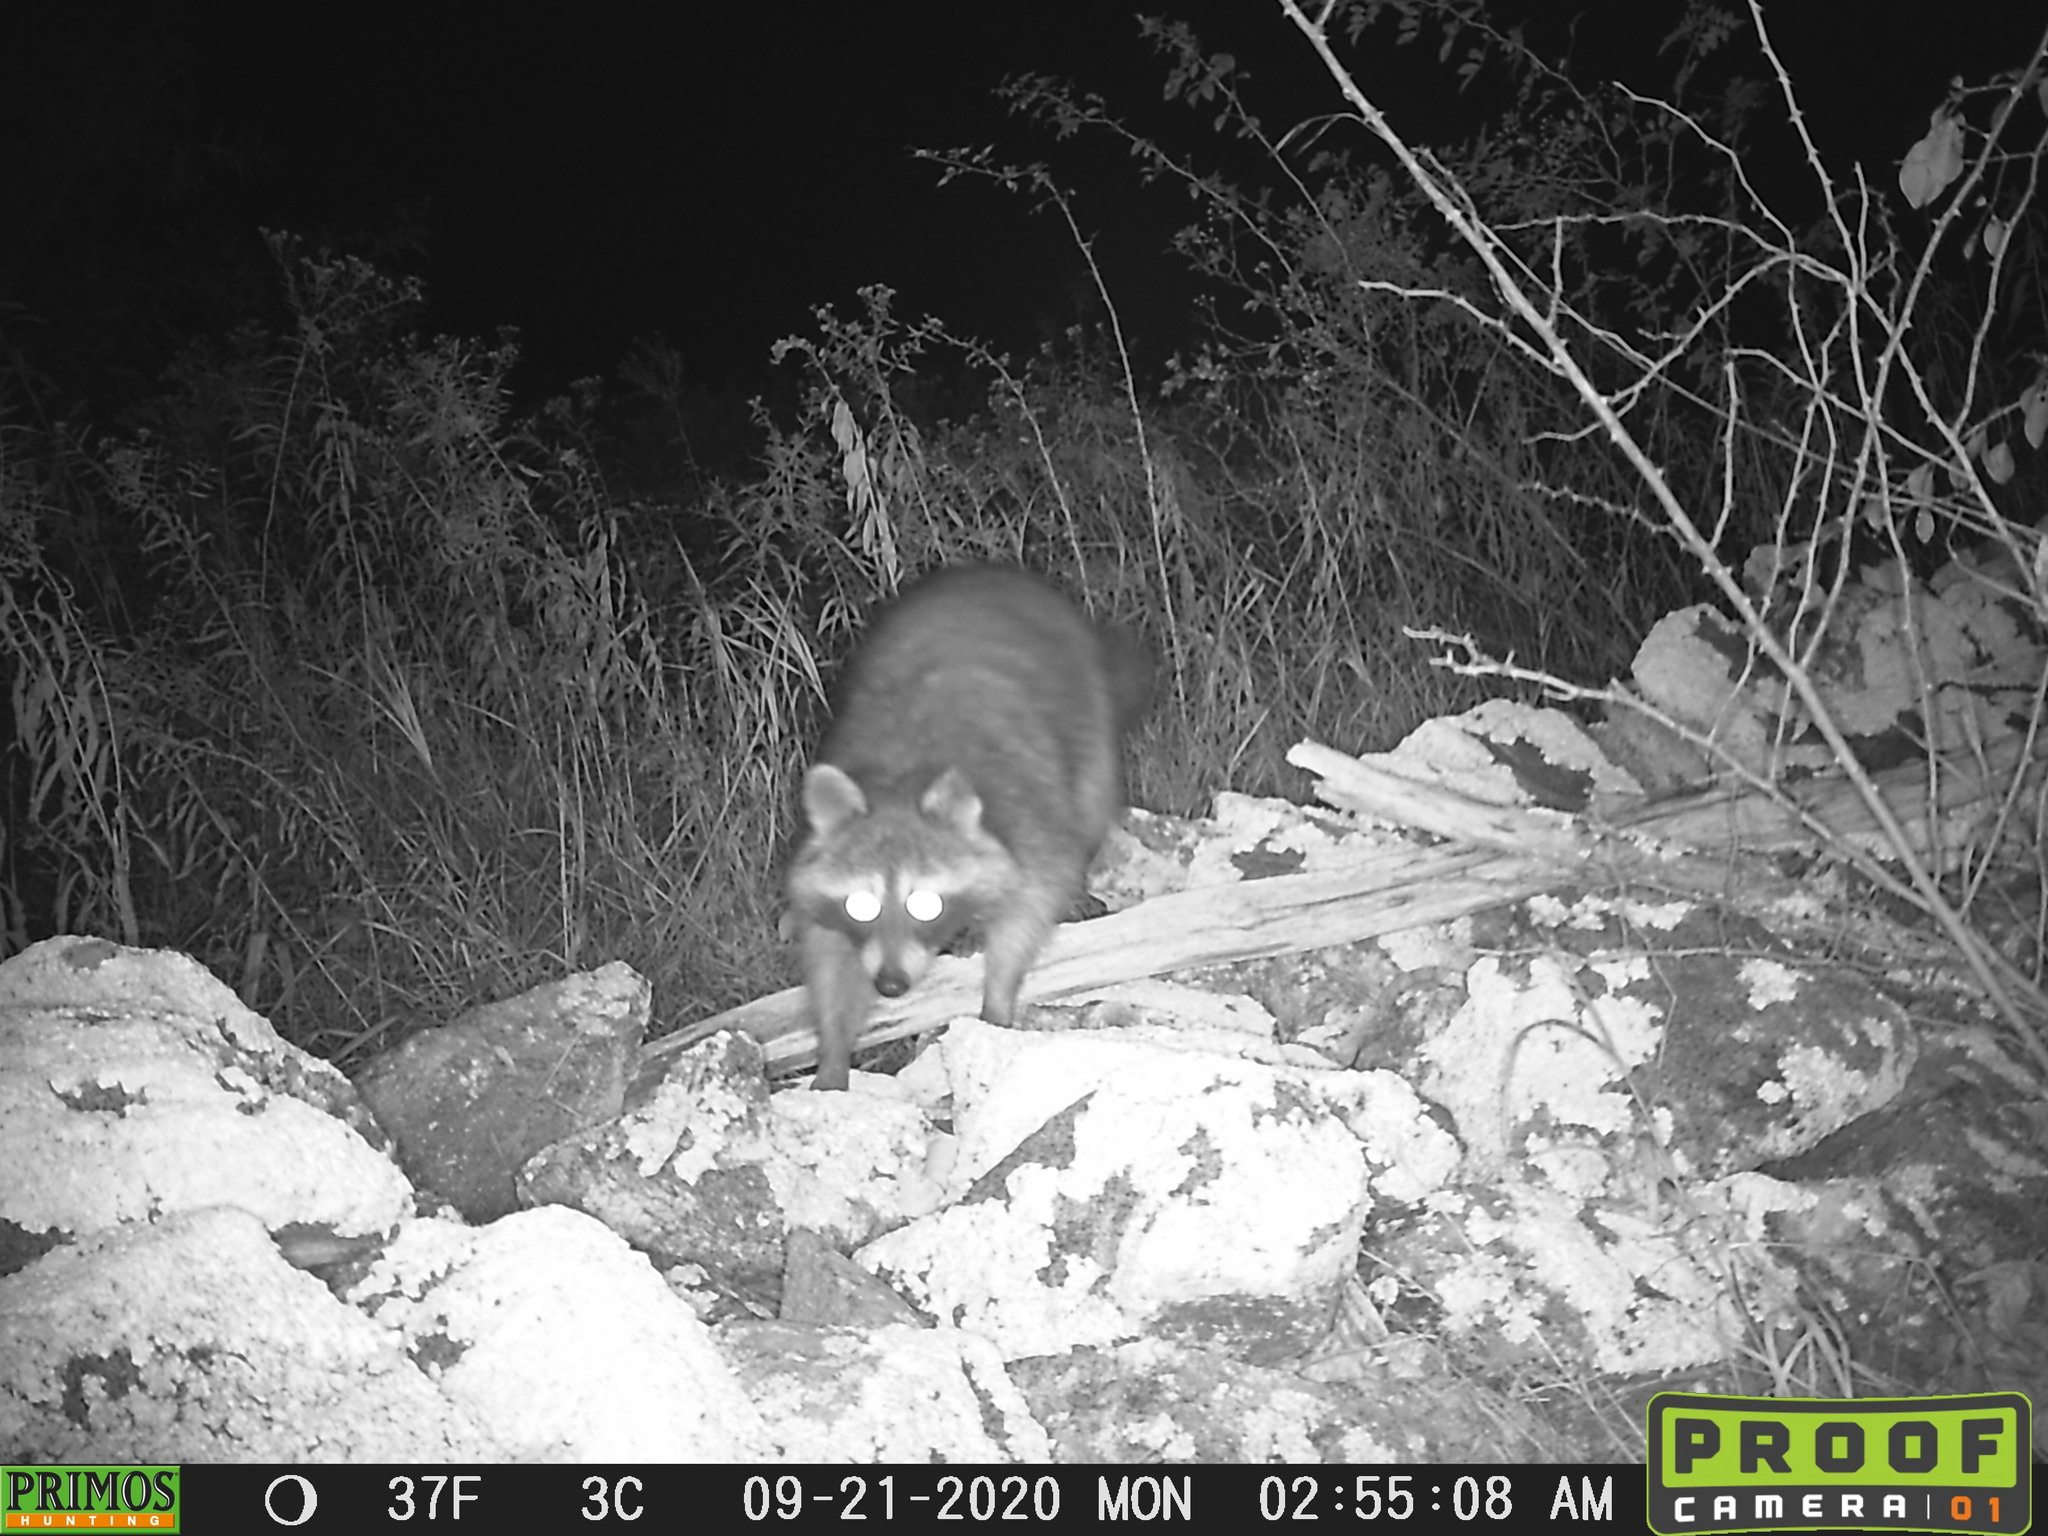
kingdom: Animalia
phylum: Chordata
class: Mammalia
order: Carnivora
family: Procyonidae
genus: Procyon
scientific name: Procyon lotor
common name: Raccoon
